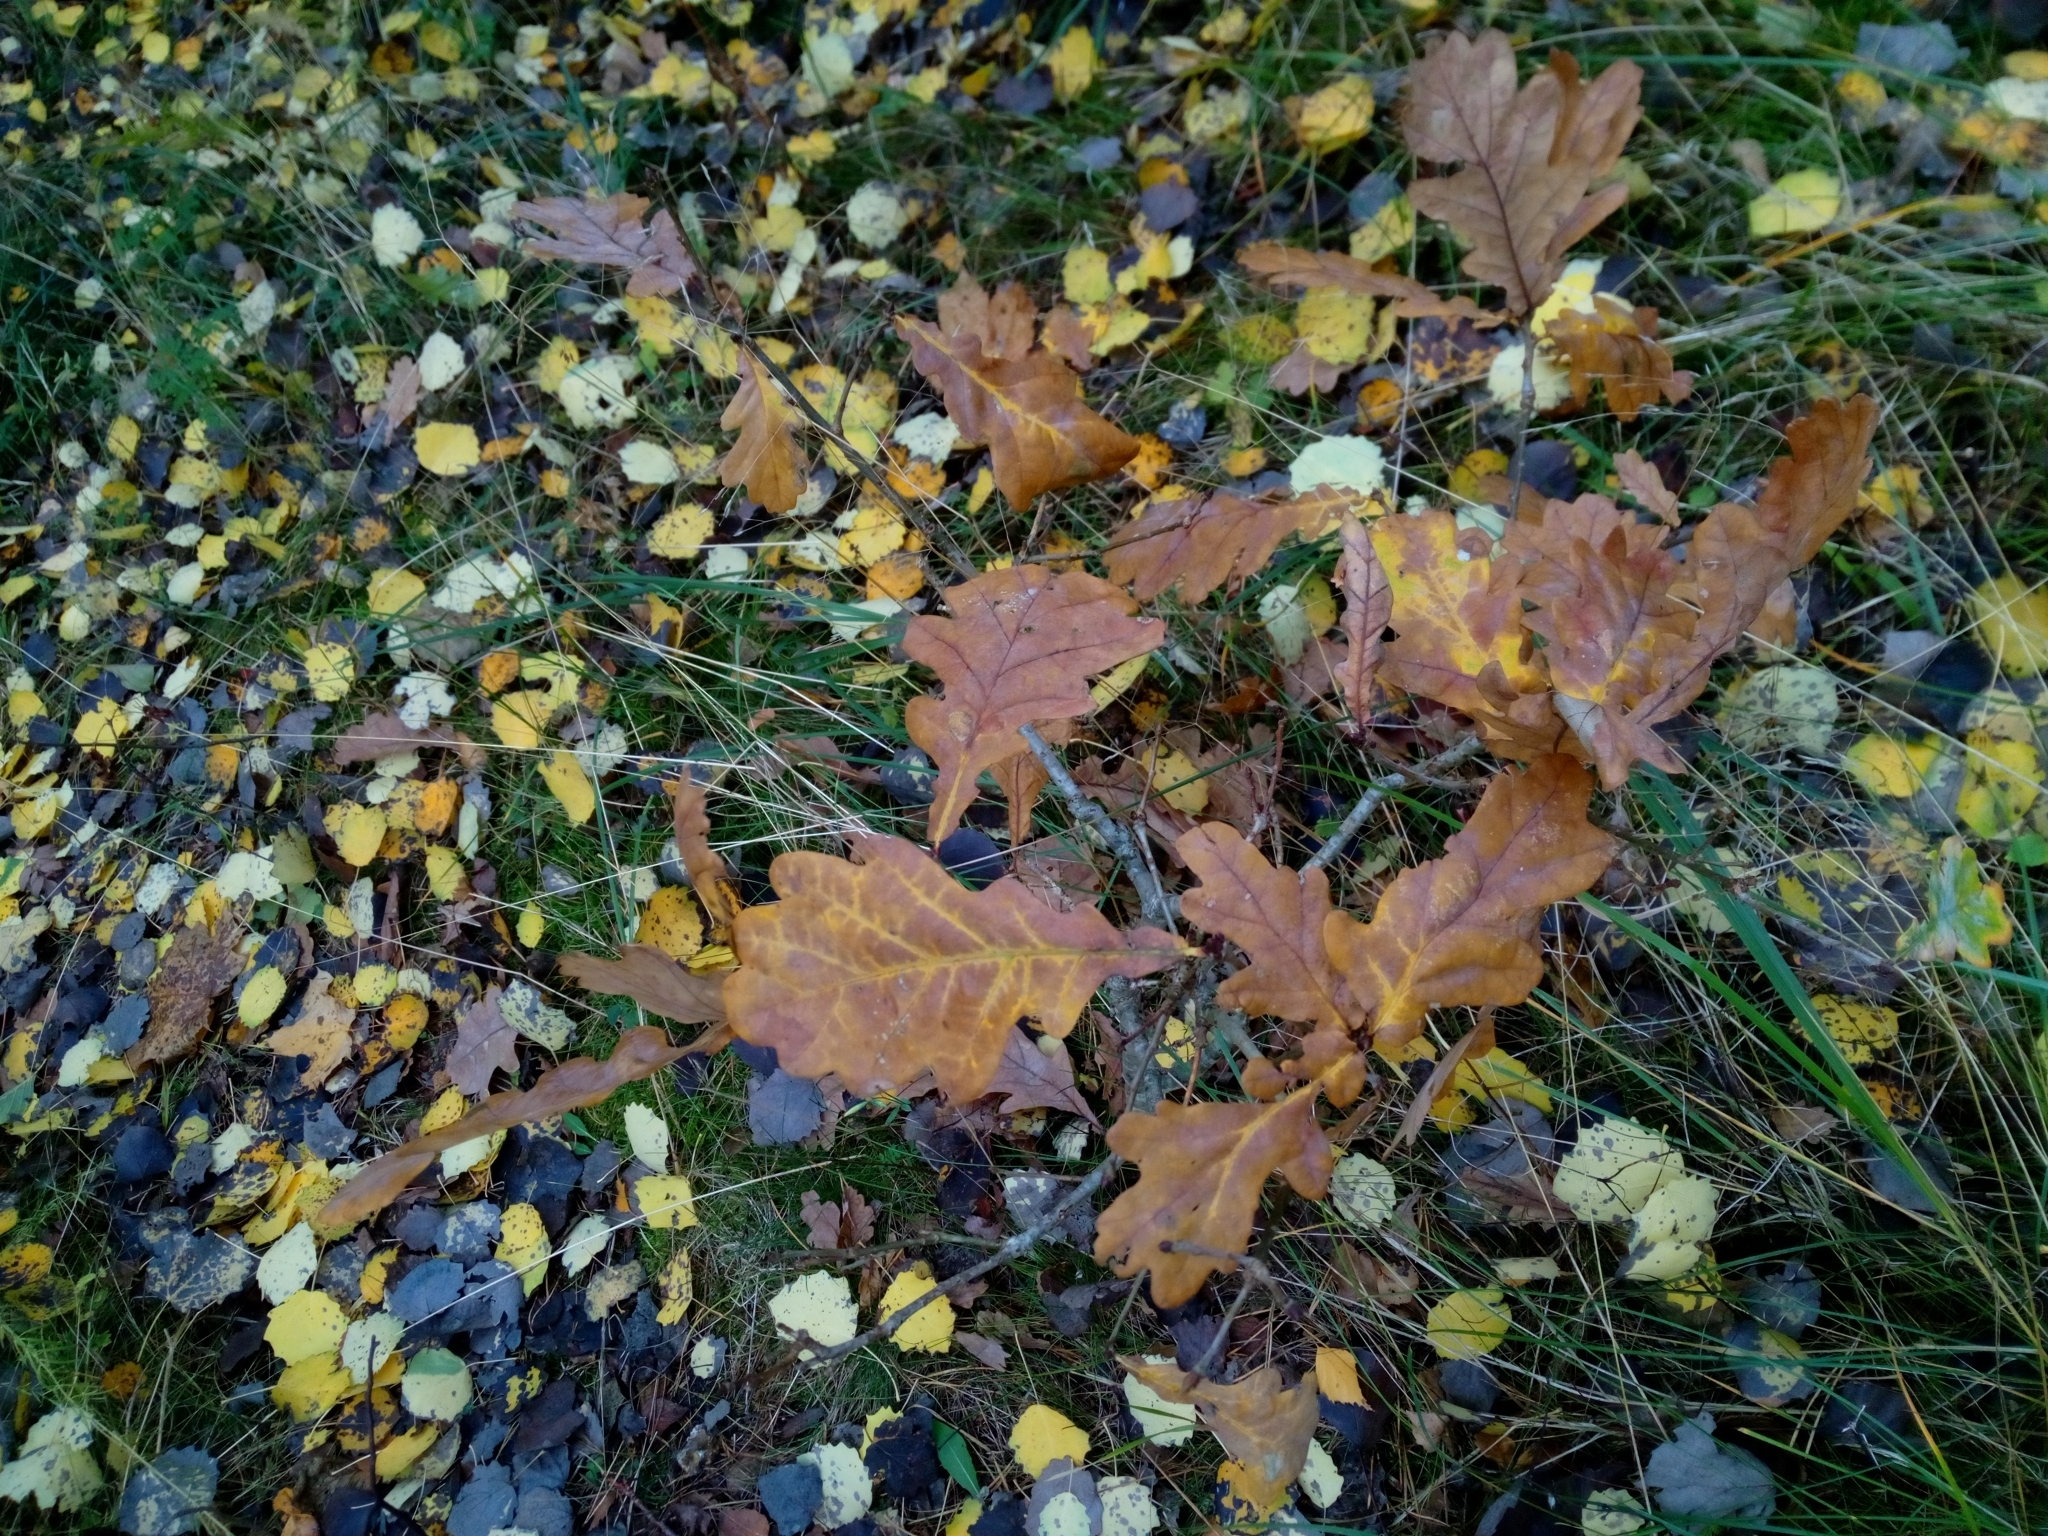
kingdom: Plantae
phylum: Tracheophyta
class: Magnoliopsida
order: Fagales
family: Fagaceae
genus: Quercus
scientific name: Quercus robur
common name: Pedunculate oak
